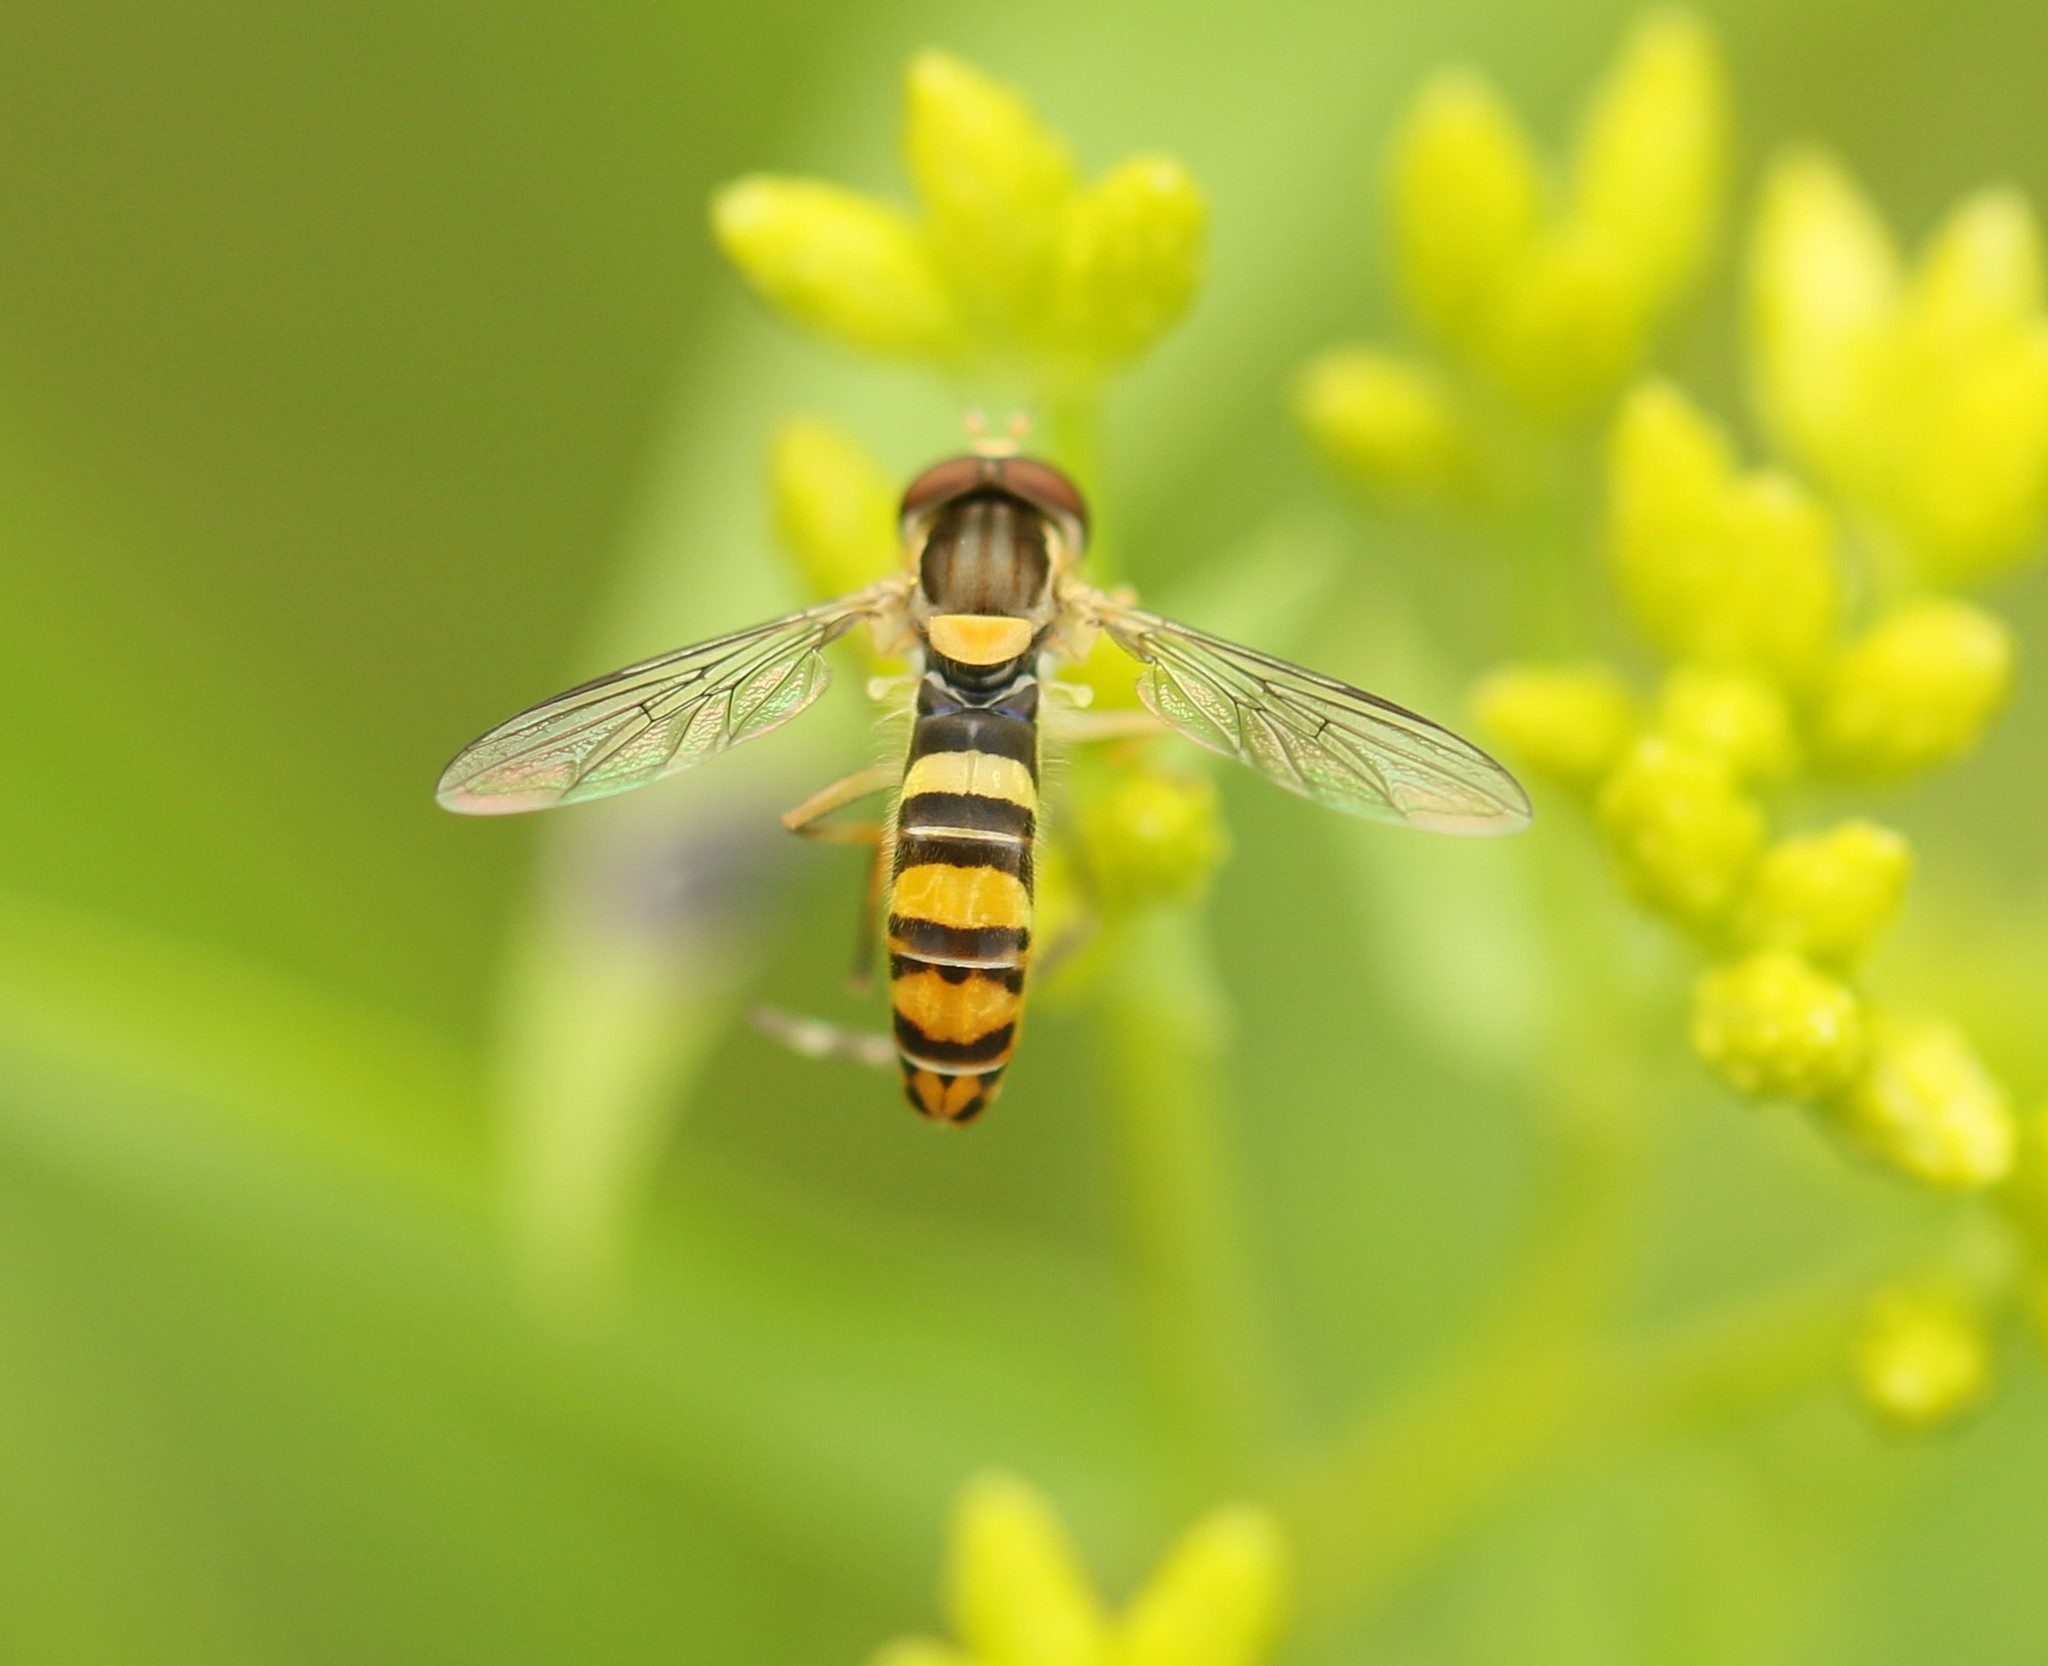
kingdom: Animalia
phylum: Arthropoda
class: Insecta
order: Diptera
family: Syrphidae
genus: Sphaerophoria
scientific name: Sphaerophoria
